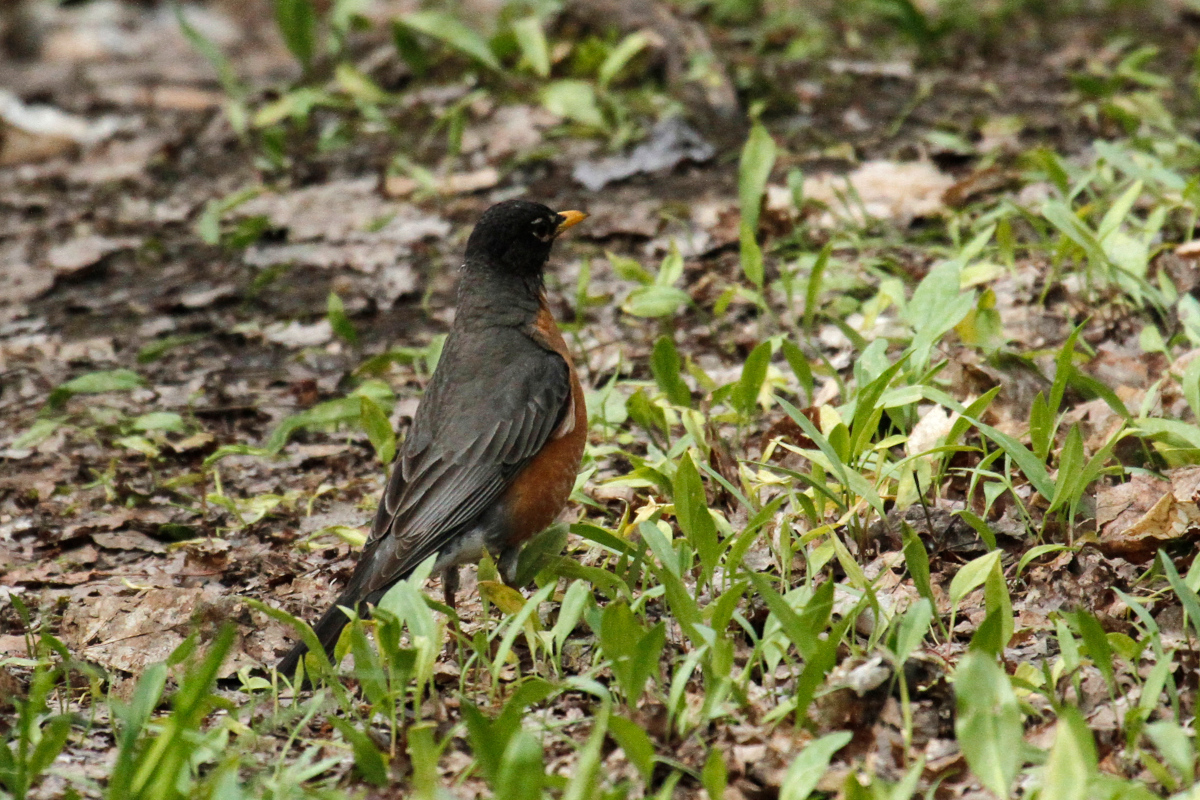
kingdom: Animalia
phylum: Chordata
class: Aves
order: Passeriformes
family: Turdidae
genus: Turdus
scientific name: Turdus migratorius
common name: American robin
